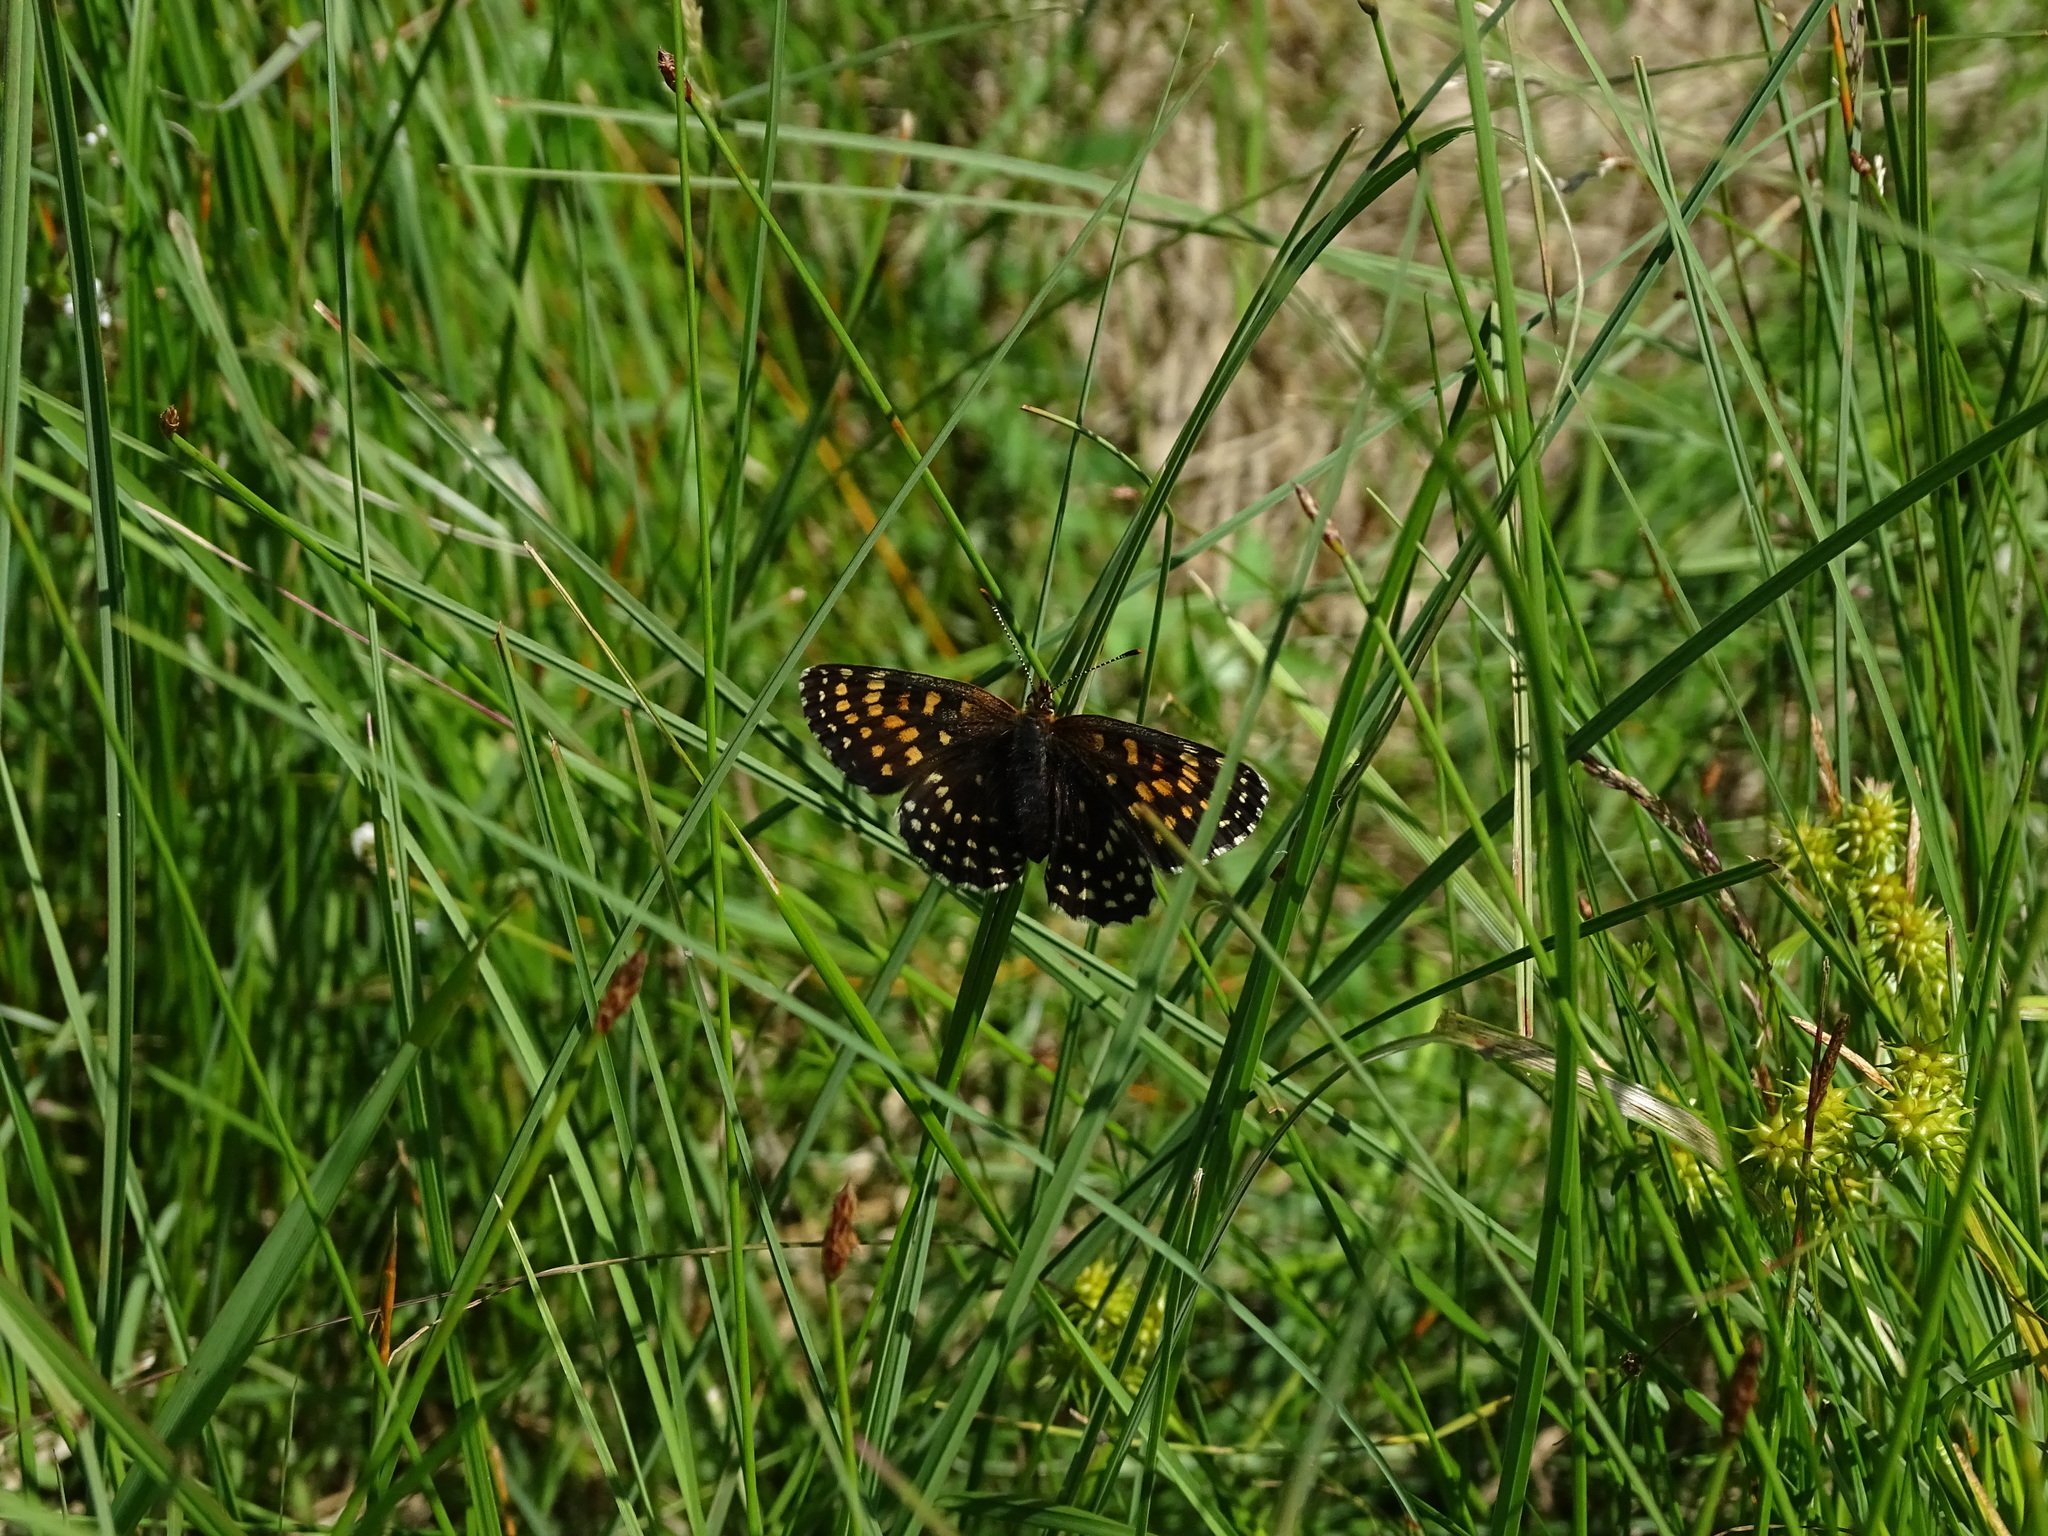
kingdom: Animalia
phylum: Arthropoda
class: Insecta
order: Lepidoptera
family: Nymphalidae
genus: Melitaea
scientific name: Melitaea diamina
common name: False heath fritillary
